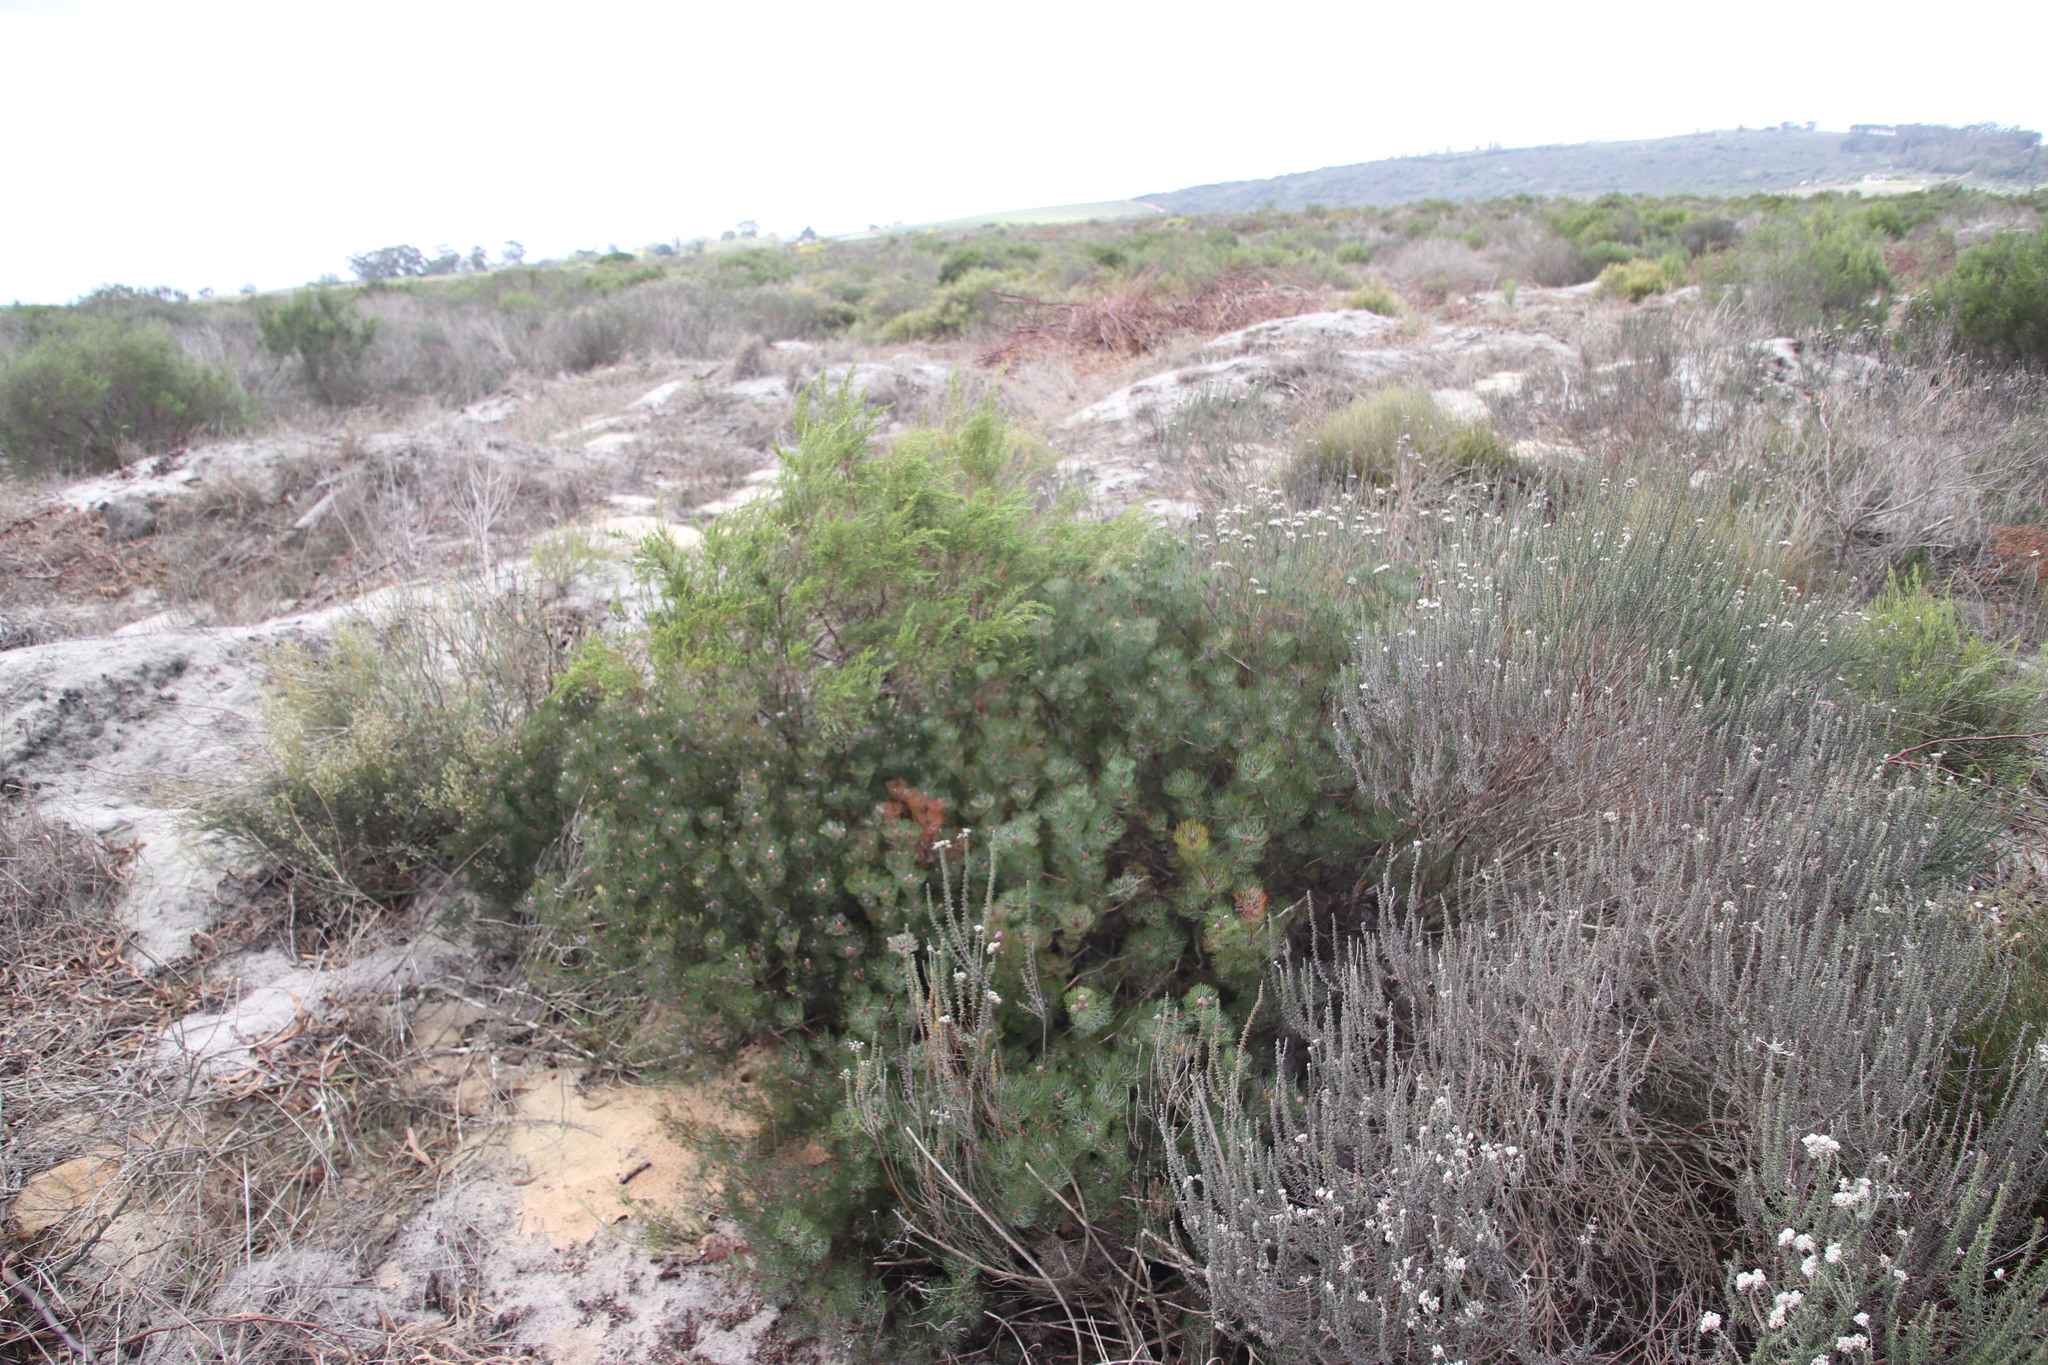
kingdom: Plantae
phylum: Tracheophyta
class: Magnoliopsida
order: Proteales
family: Proteaceae
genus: Serruria
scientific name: Serruria fasciflora
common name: Common pin spiderhead
